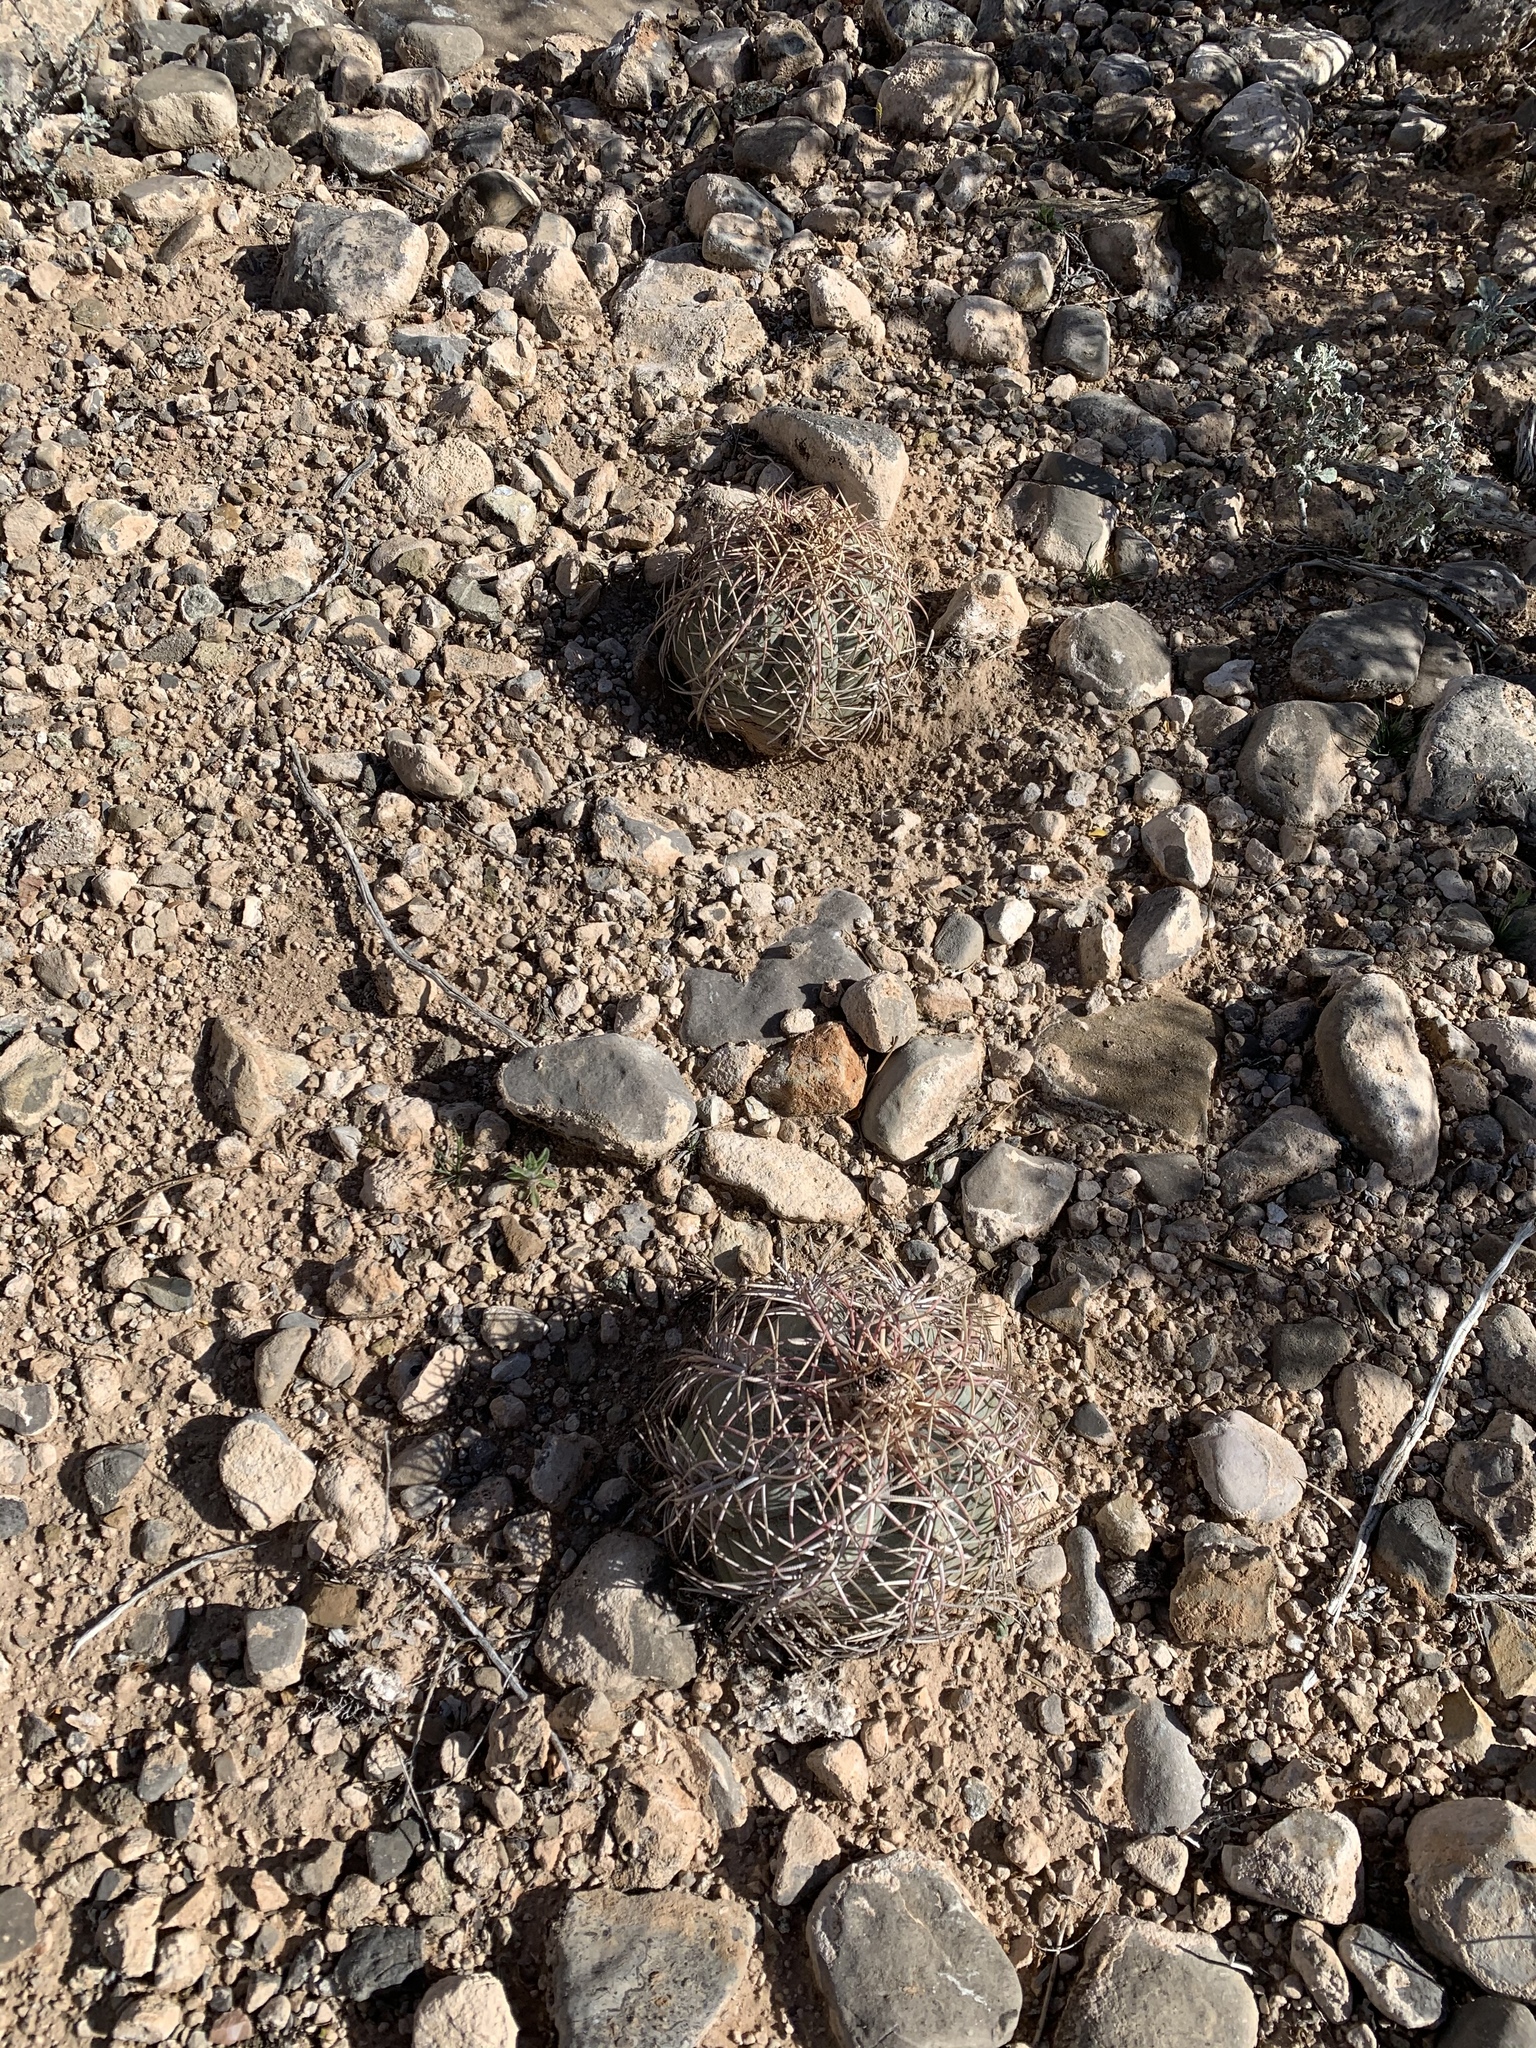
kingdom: Plantae
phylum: Tracheophyta
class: Magnoliopsida
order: Caryophyllales
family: Cactaceae
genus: Echinocactus
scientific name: Echinocactus horizonthalonius
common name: Devilshead
